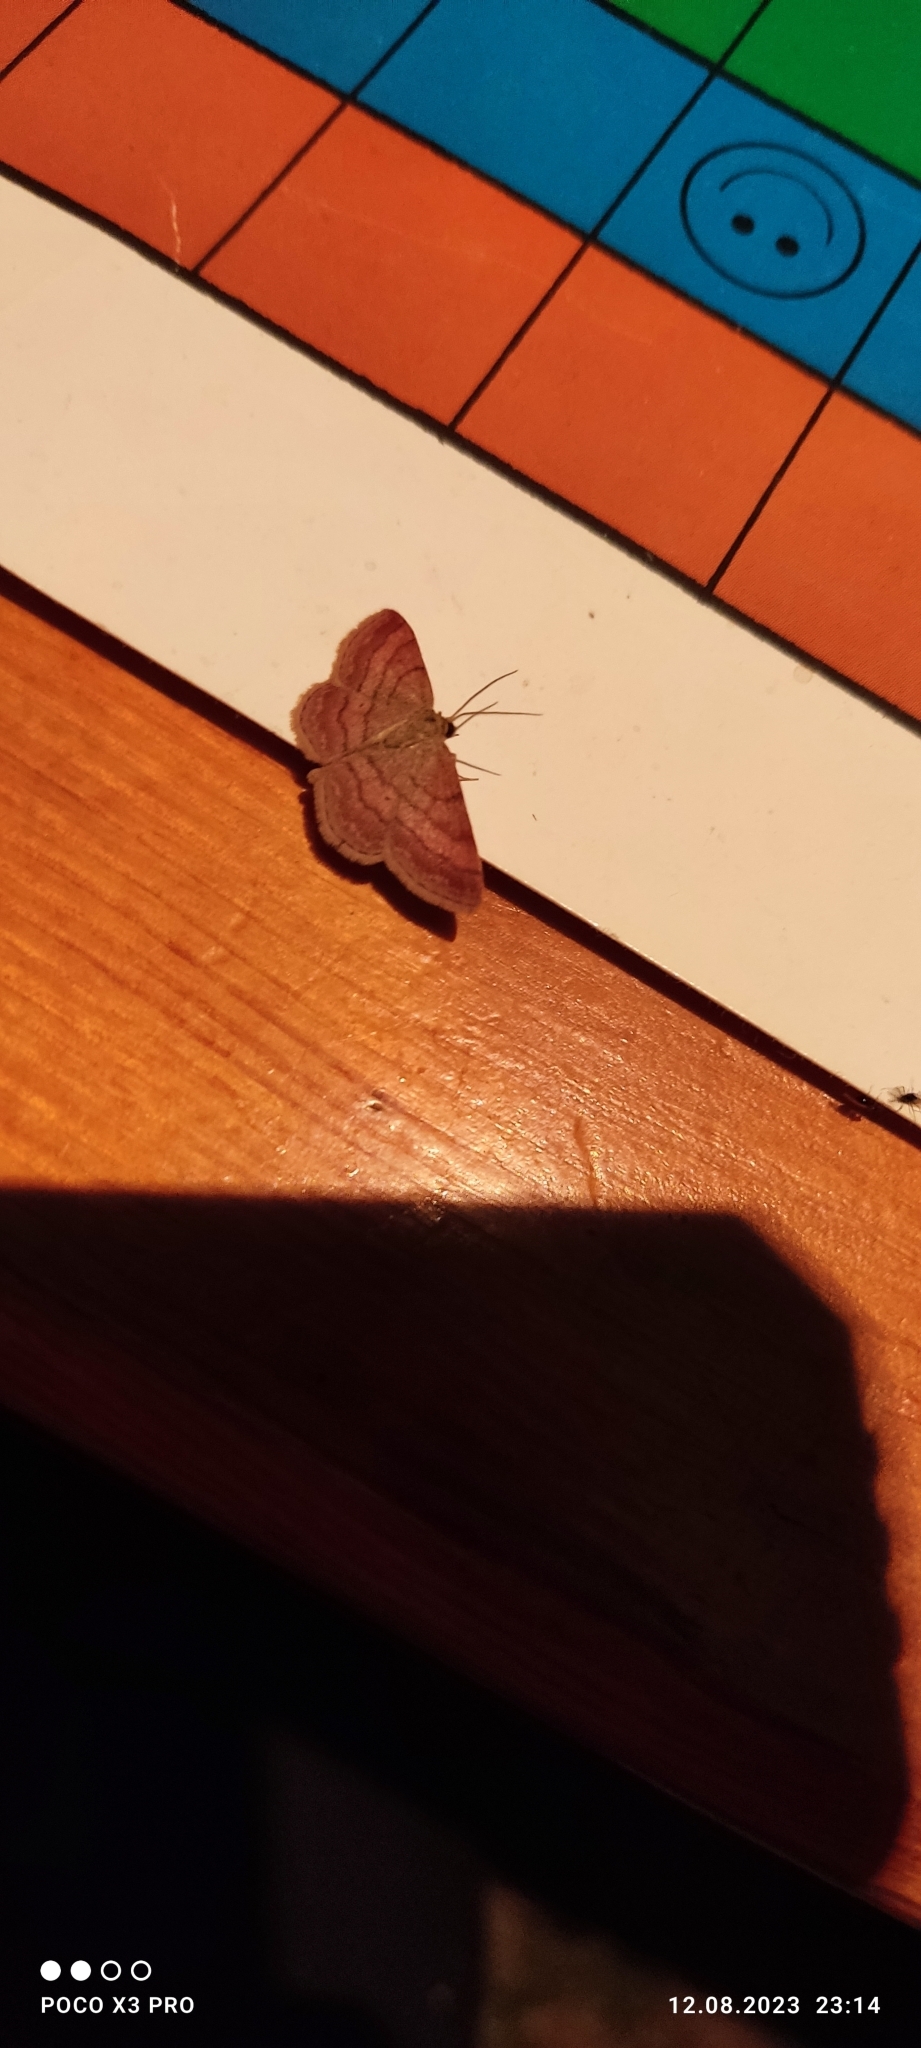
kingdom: Animalia
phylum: Arthropoda
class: Insecta
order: Lepidoptera
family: Geometridae
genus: Scopula
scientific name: Scopula rubiginata
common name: Tawny wave
